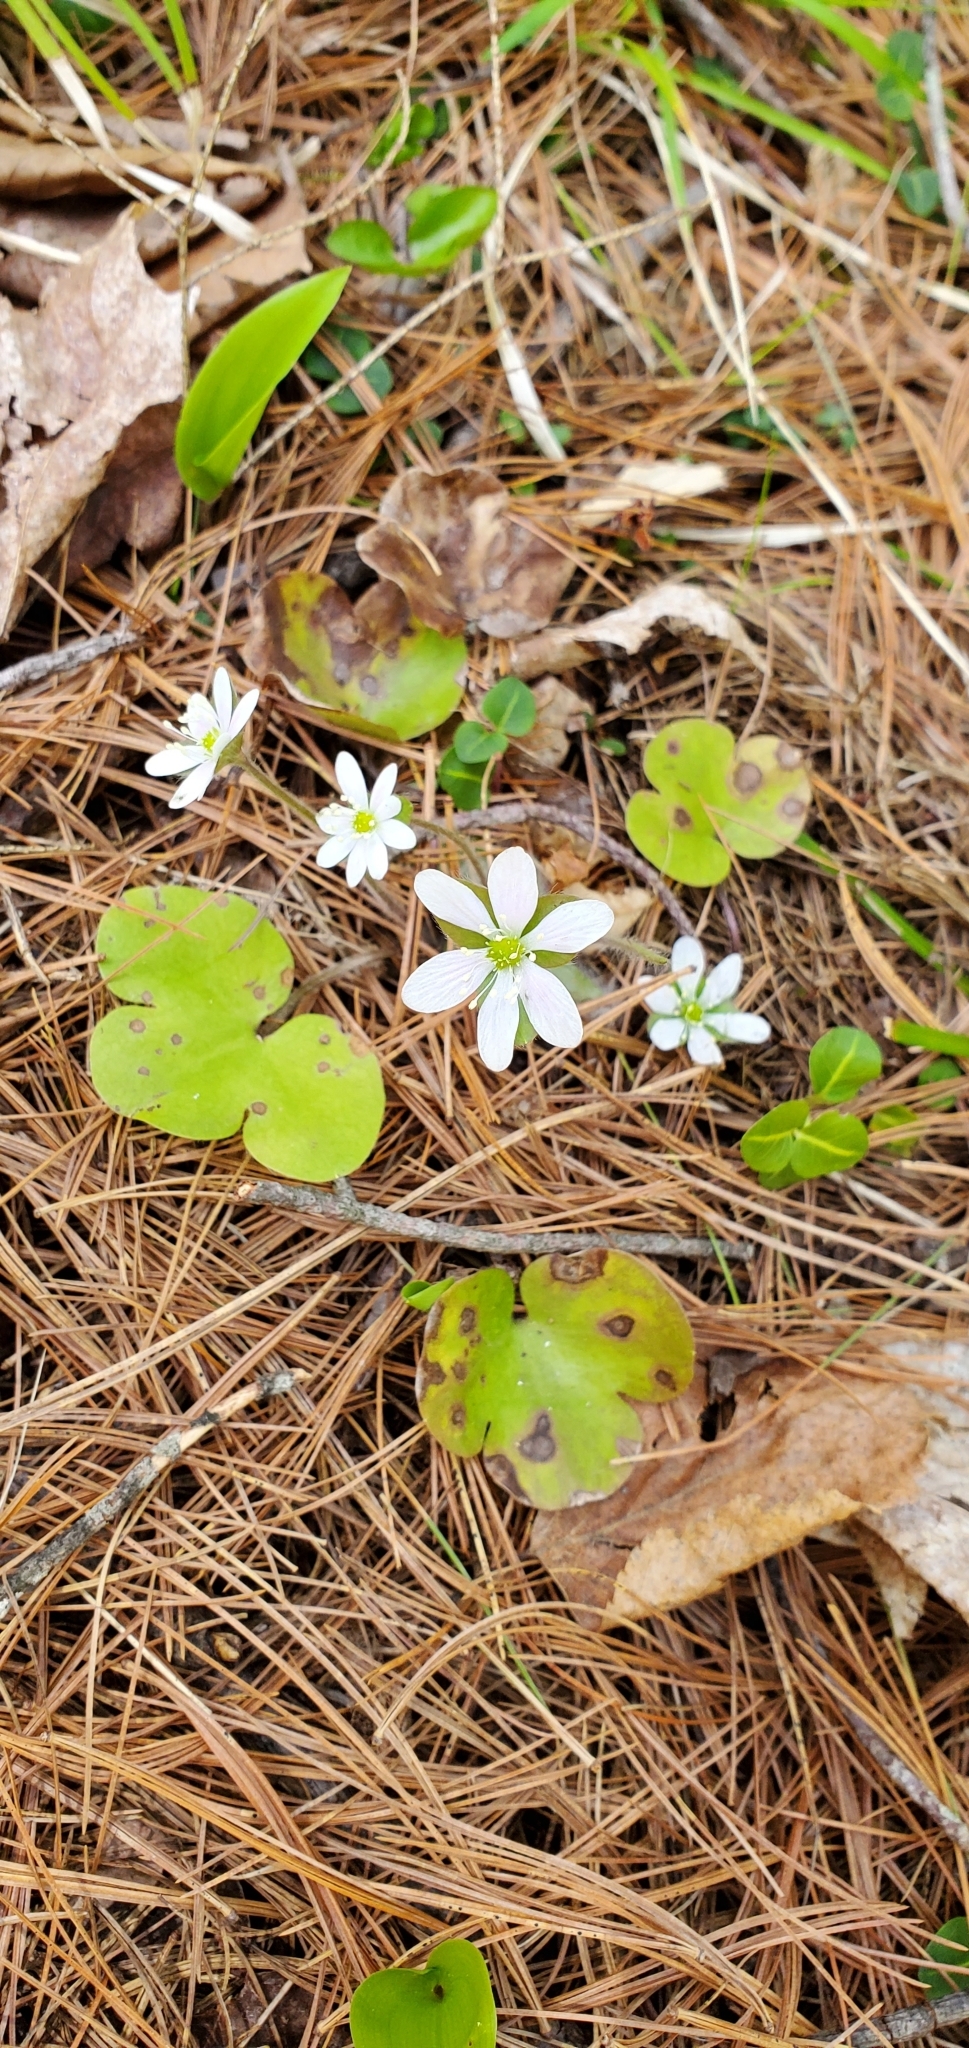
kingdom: Plantae
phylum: Tracheophyta
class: Magnoliopsida
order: Ranunculales
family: Ranunculaceae
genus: Hepatica
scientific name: Hepatica americana
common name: American hepatica
